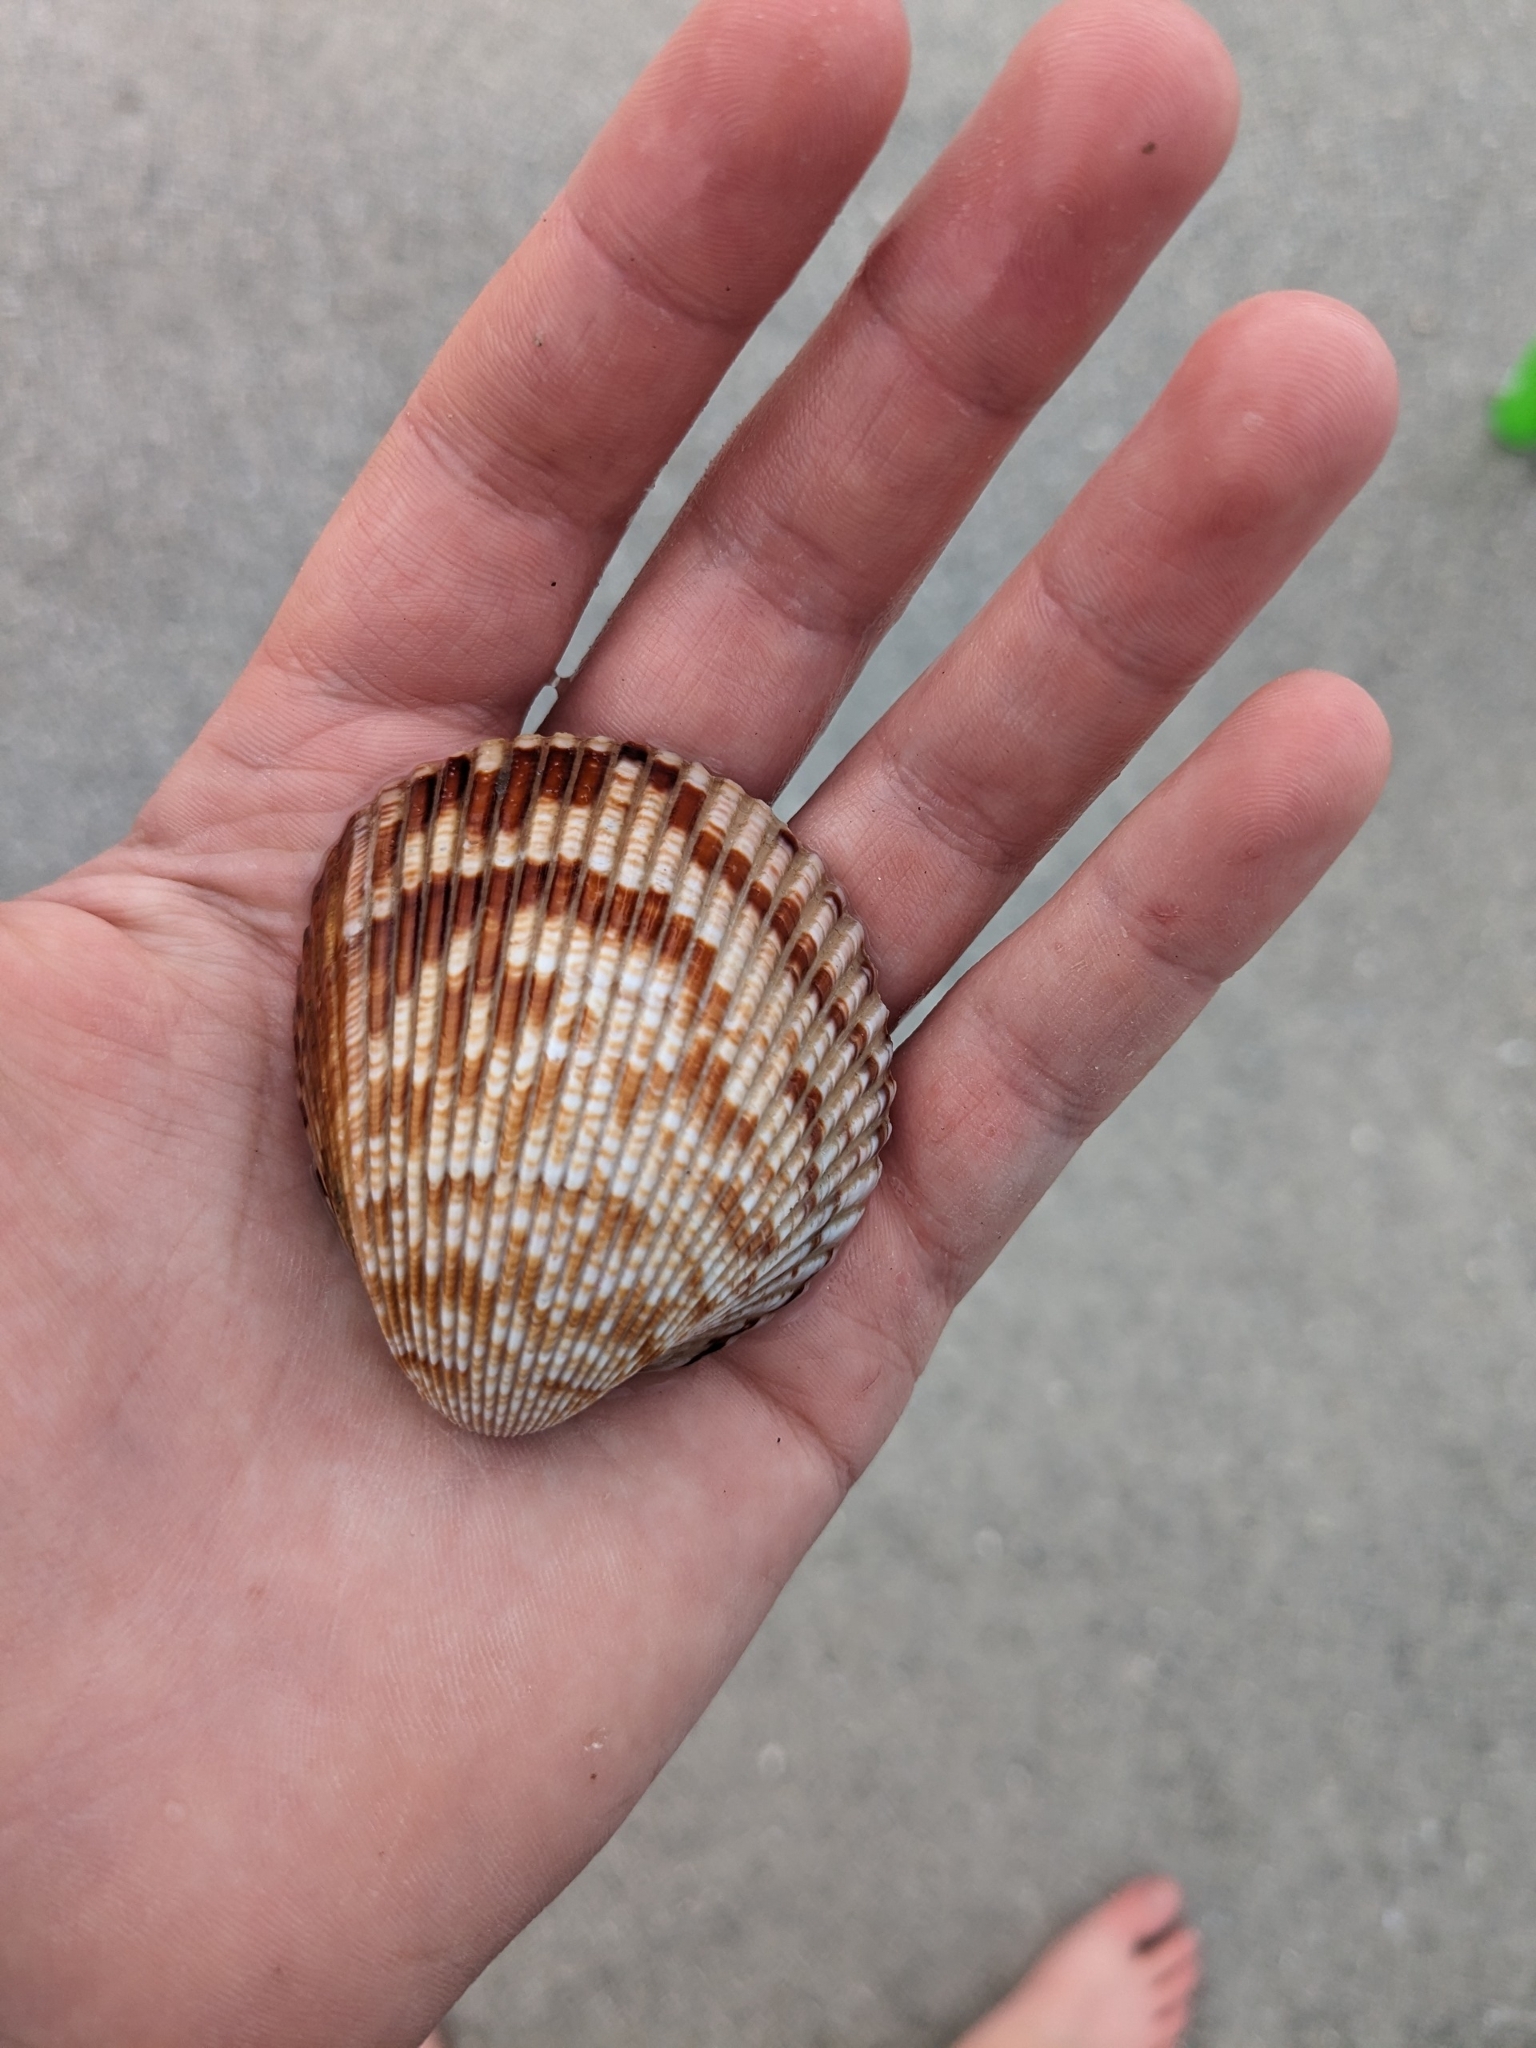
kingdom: Animalia
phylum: Mollusca
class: Bivalvia
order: Cardiida
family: Cardiidae
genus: Dinocardium
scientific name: Dinocardium robustum
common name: Atlantic giant cockle
